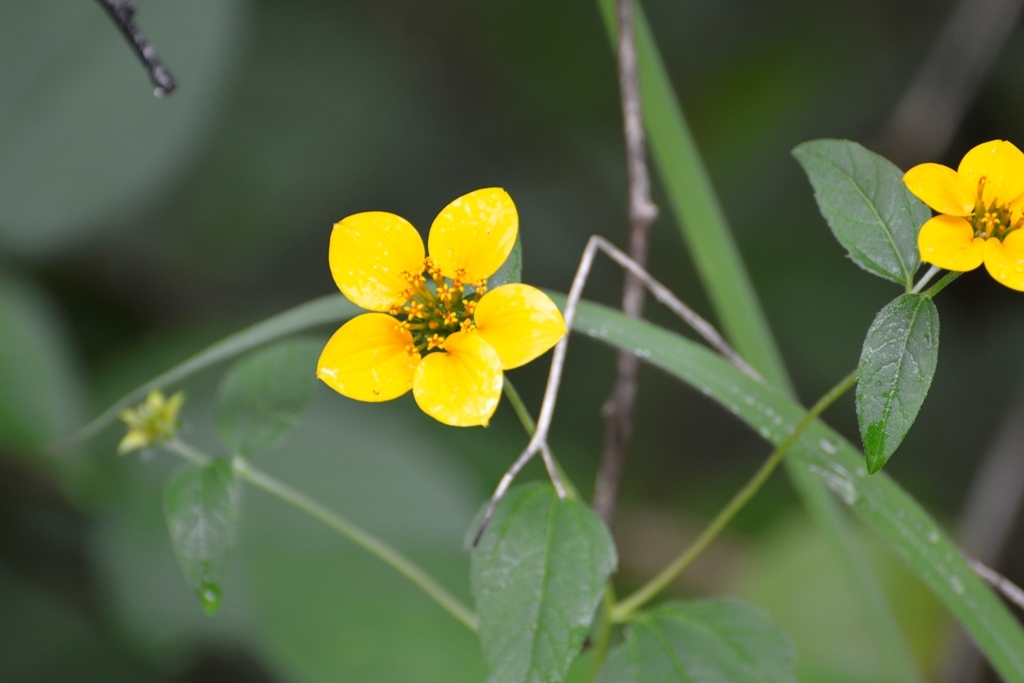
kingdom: Plantae
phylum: Tracheophyta
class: Magnoliopsida
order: Asterales
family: Asteraceae
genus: Sclerocarpus
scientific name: Sclerocarpus uniserialis
